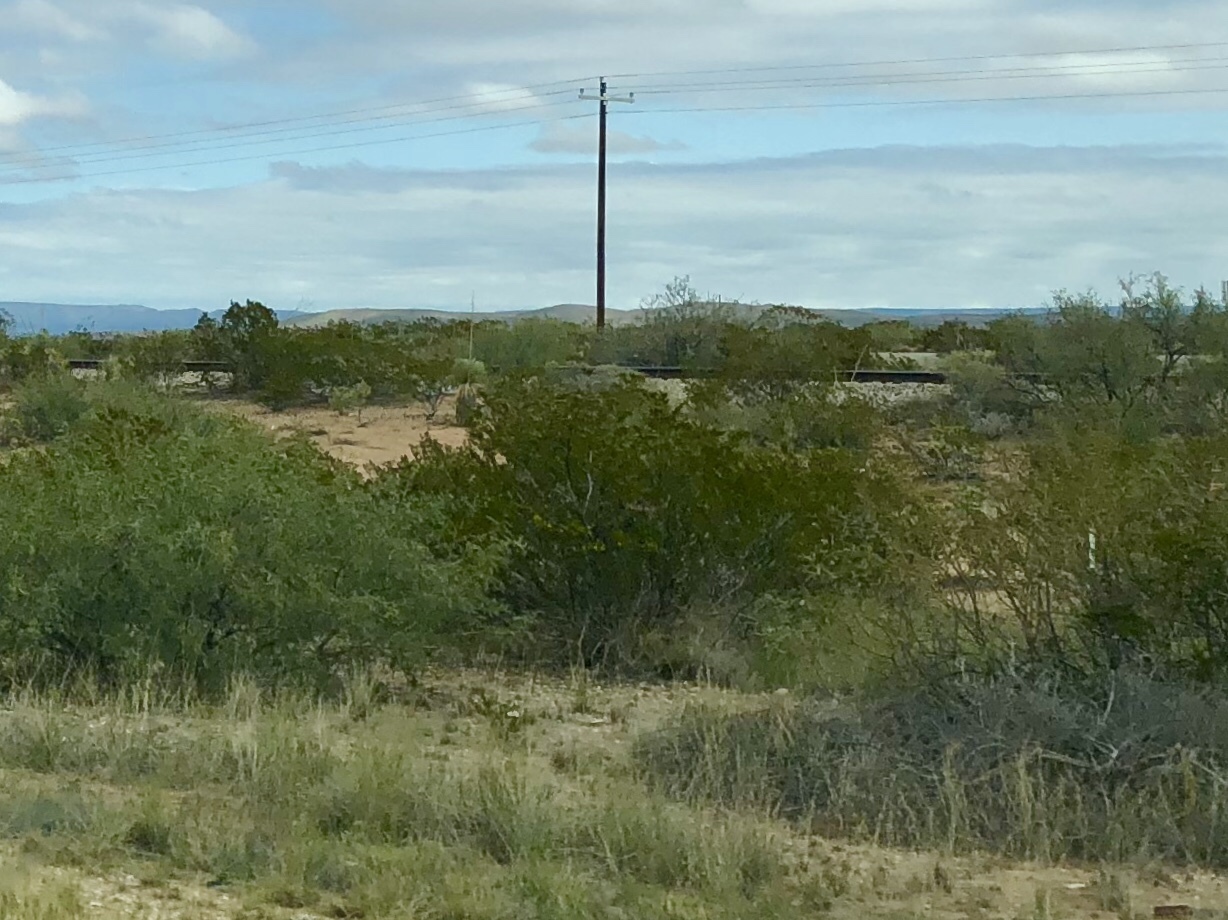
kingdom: Plantae
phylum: Tracheophyta
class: Magnoliopsida
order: Zygophyllales
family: Zygophyllaceae
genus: Larrea
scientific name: Larrea tridentata
